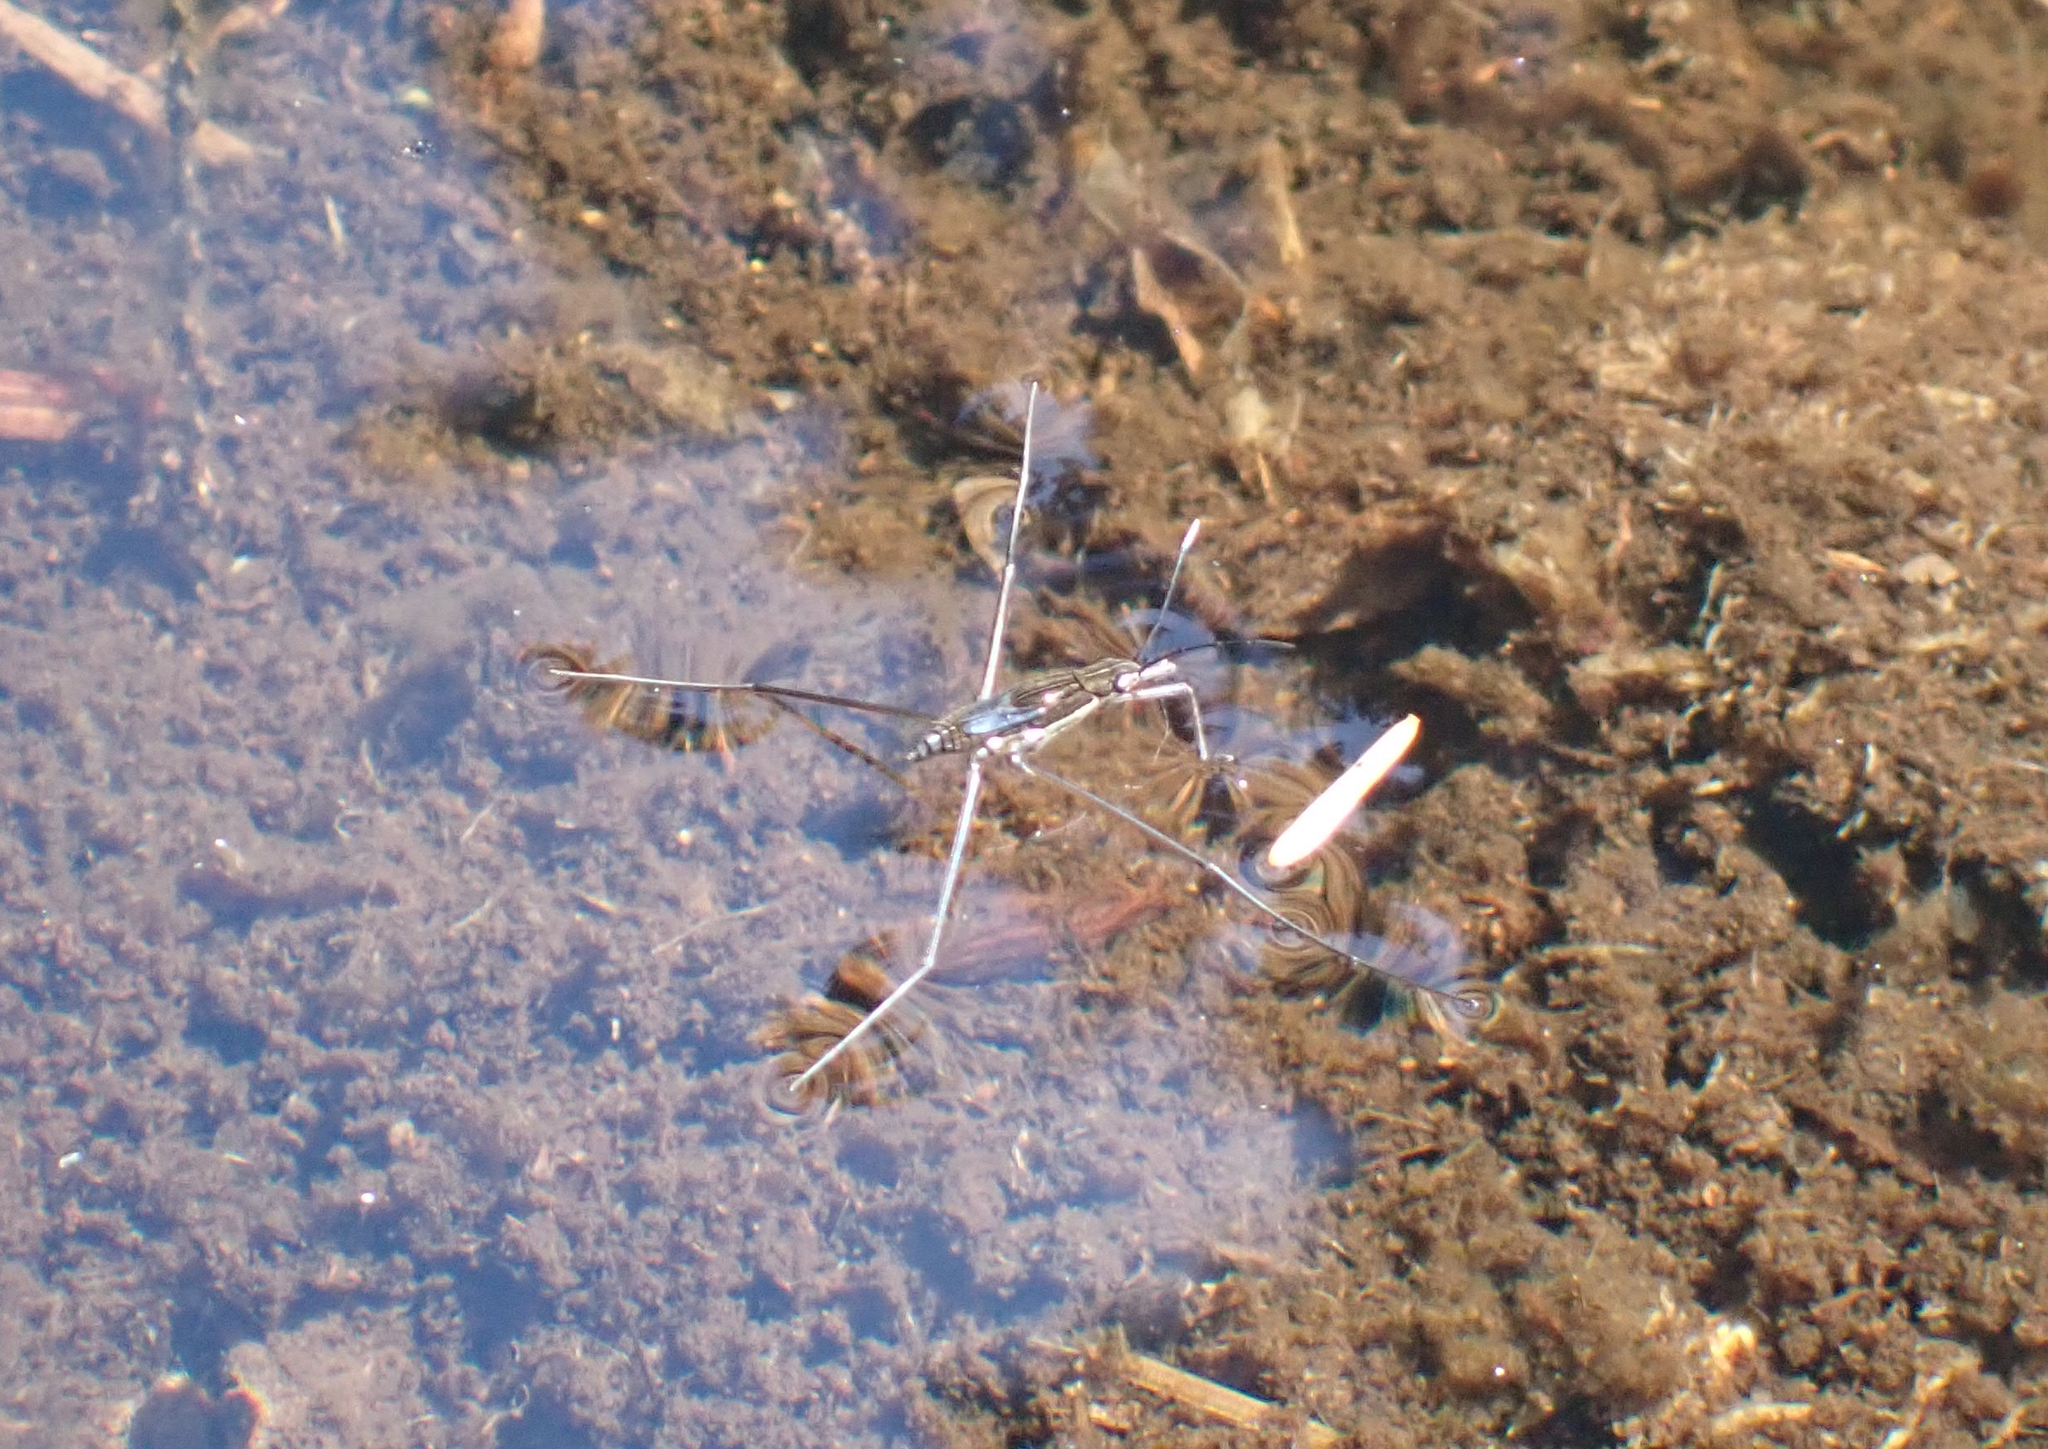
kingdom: Animalia
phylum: Arthropoda
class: Insecta
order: Hemiptera
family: Gerridae
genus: Limnoporus
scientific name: Limnoporus notabilis
